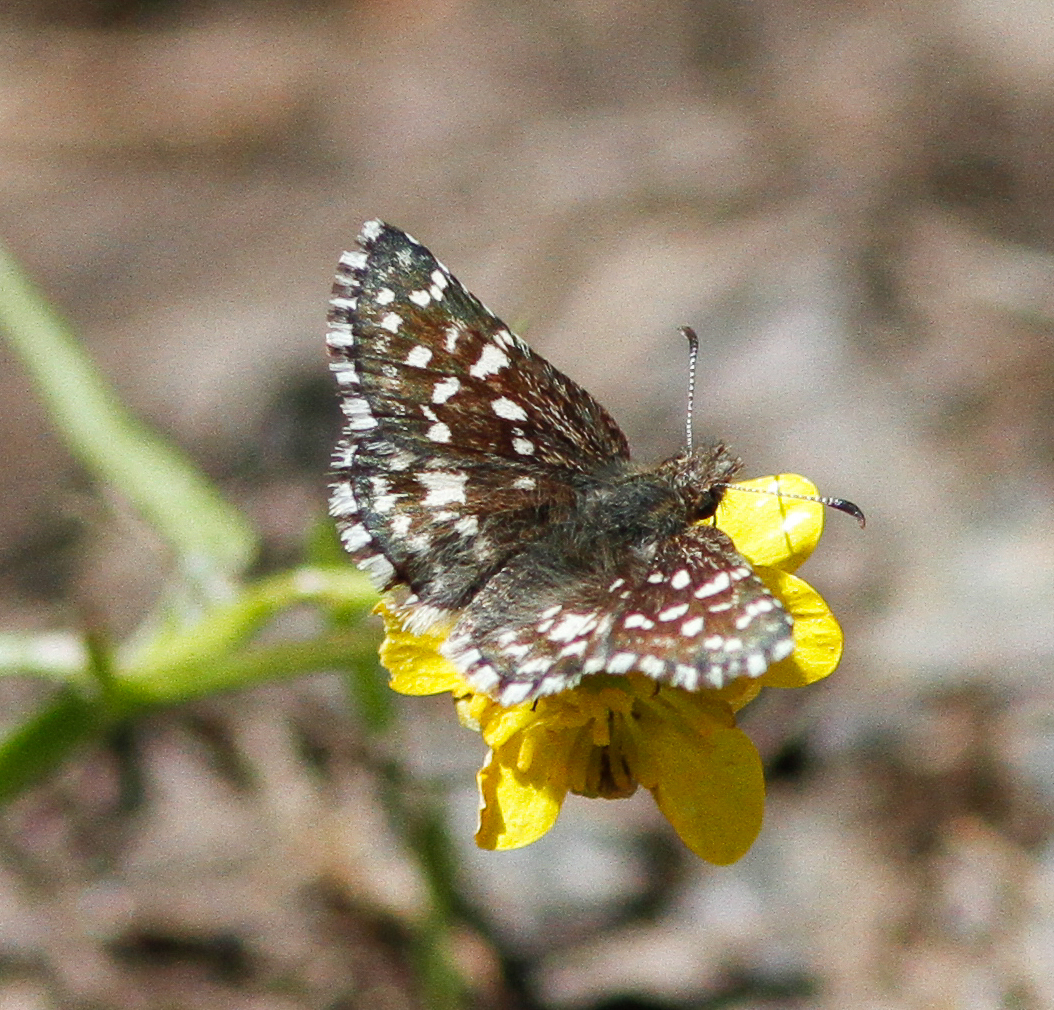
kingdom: Animalia
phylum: Arthropoda
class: Insecta
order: Lepidoptera
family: Hesperiidae
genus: Pyrgus
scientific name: Pyrgus ruralis
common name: Two-banded checkered-skipper
